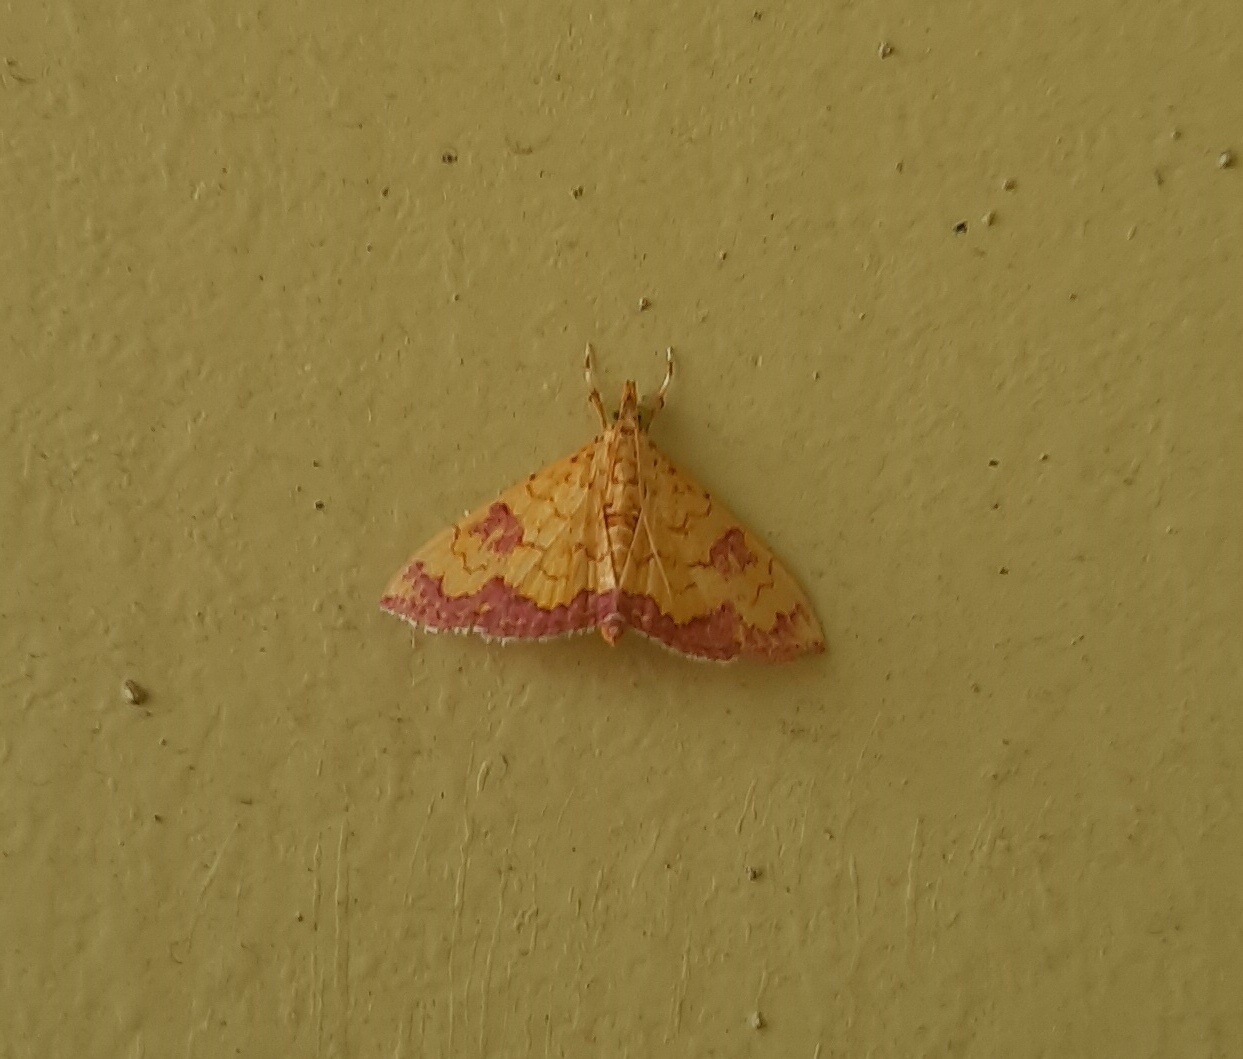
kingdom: Animalia
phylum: Arthropoda
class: Insecta
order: Lepidoptera
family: Crambidae
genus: Isocentris
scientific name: Isocentris filalis
